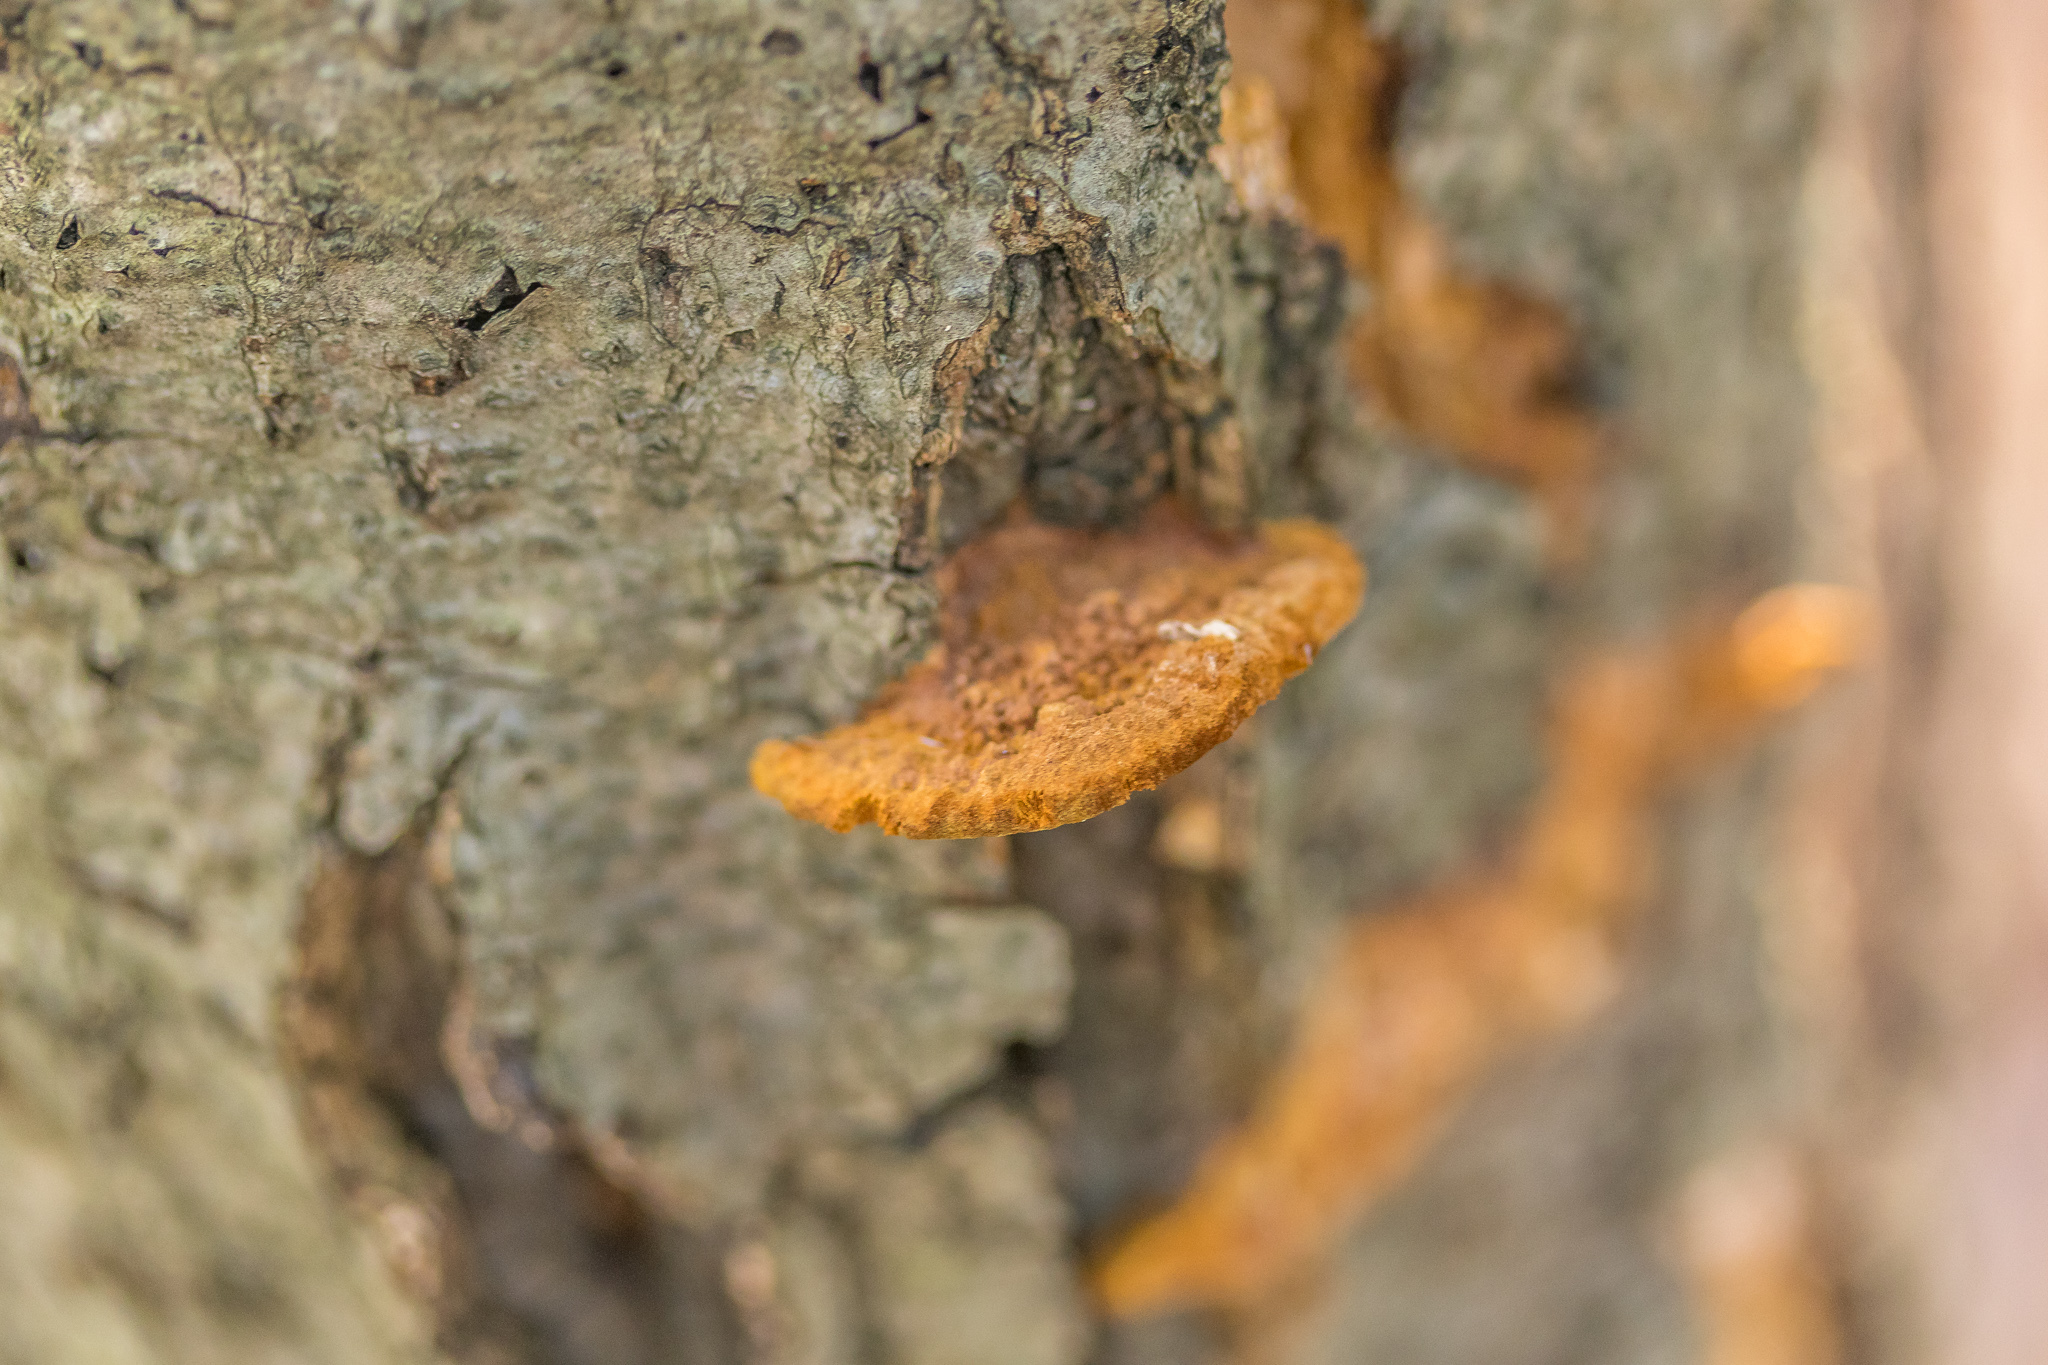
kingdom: Fungi
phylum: Basidiomycota
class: Agaricomycetes
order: Hymenochaetales
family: Hymenochaetaceae
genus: Phellinus
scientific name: Phellinus gilvus
